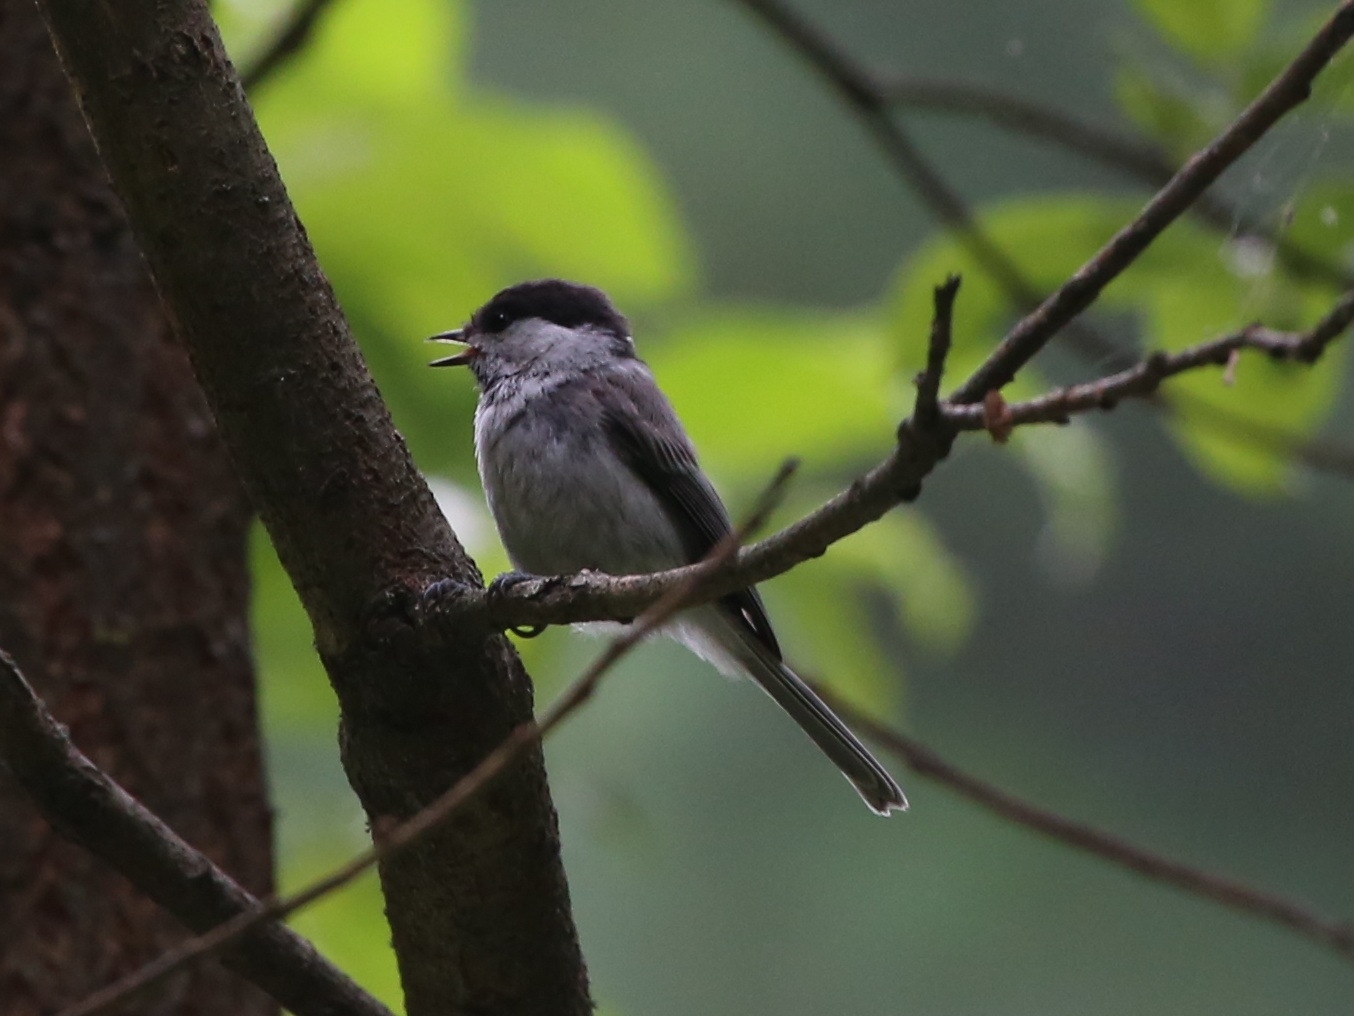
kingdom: Animalia
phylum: Chordata
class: Aves
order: Passeriformes
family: Paridae
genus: Poecile
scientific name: Poecile montanus
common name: Willow tit
